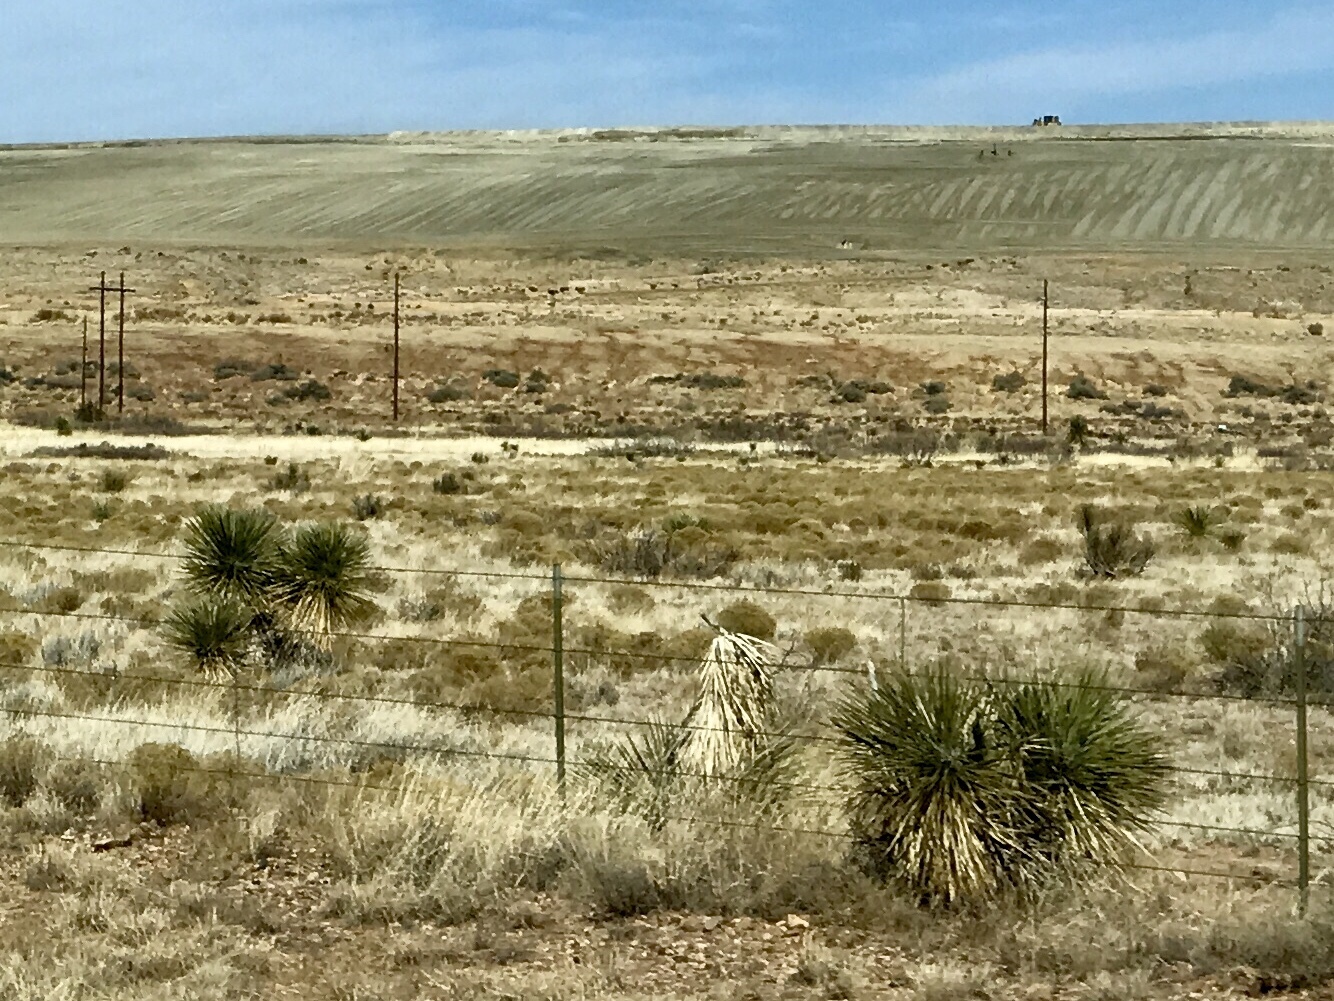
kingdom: Plantae
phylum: Tracheophyta
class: Liliopsida
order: Asparagales
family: Asparagaceae
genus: Yucca
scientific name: Yucca elata
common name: Palmella
